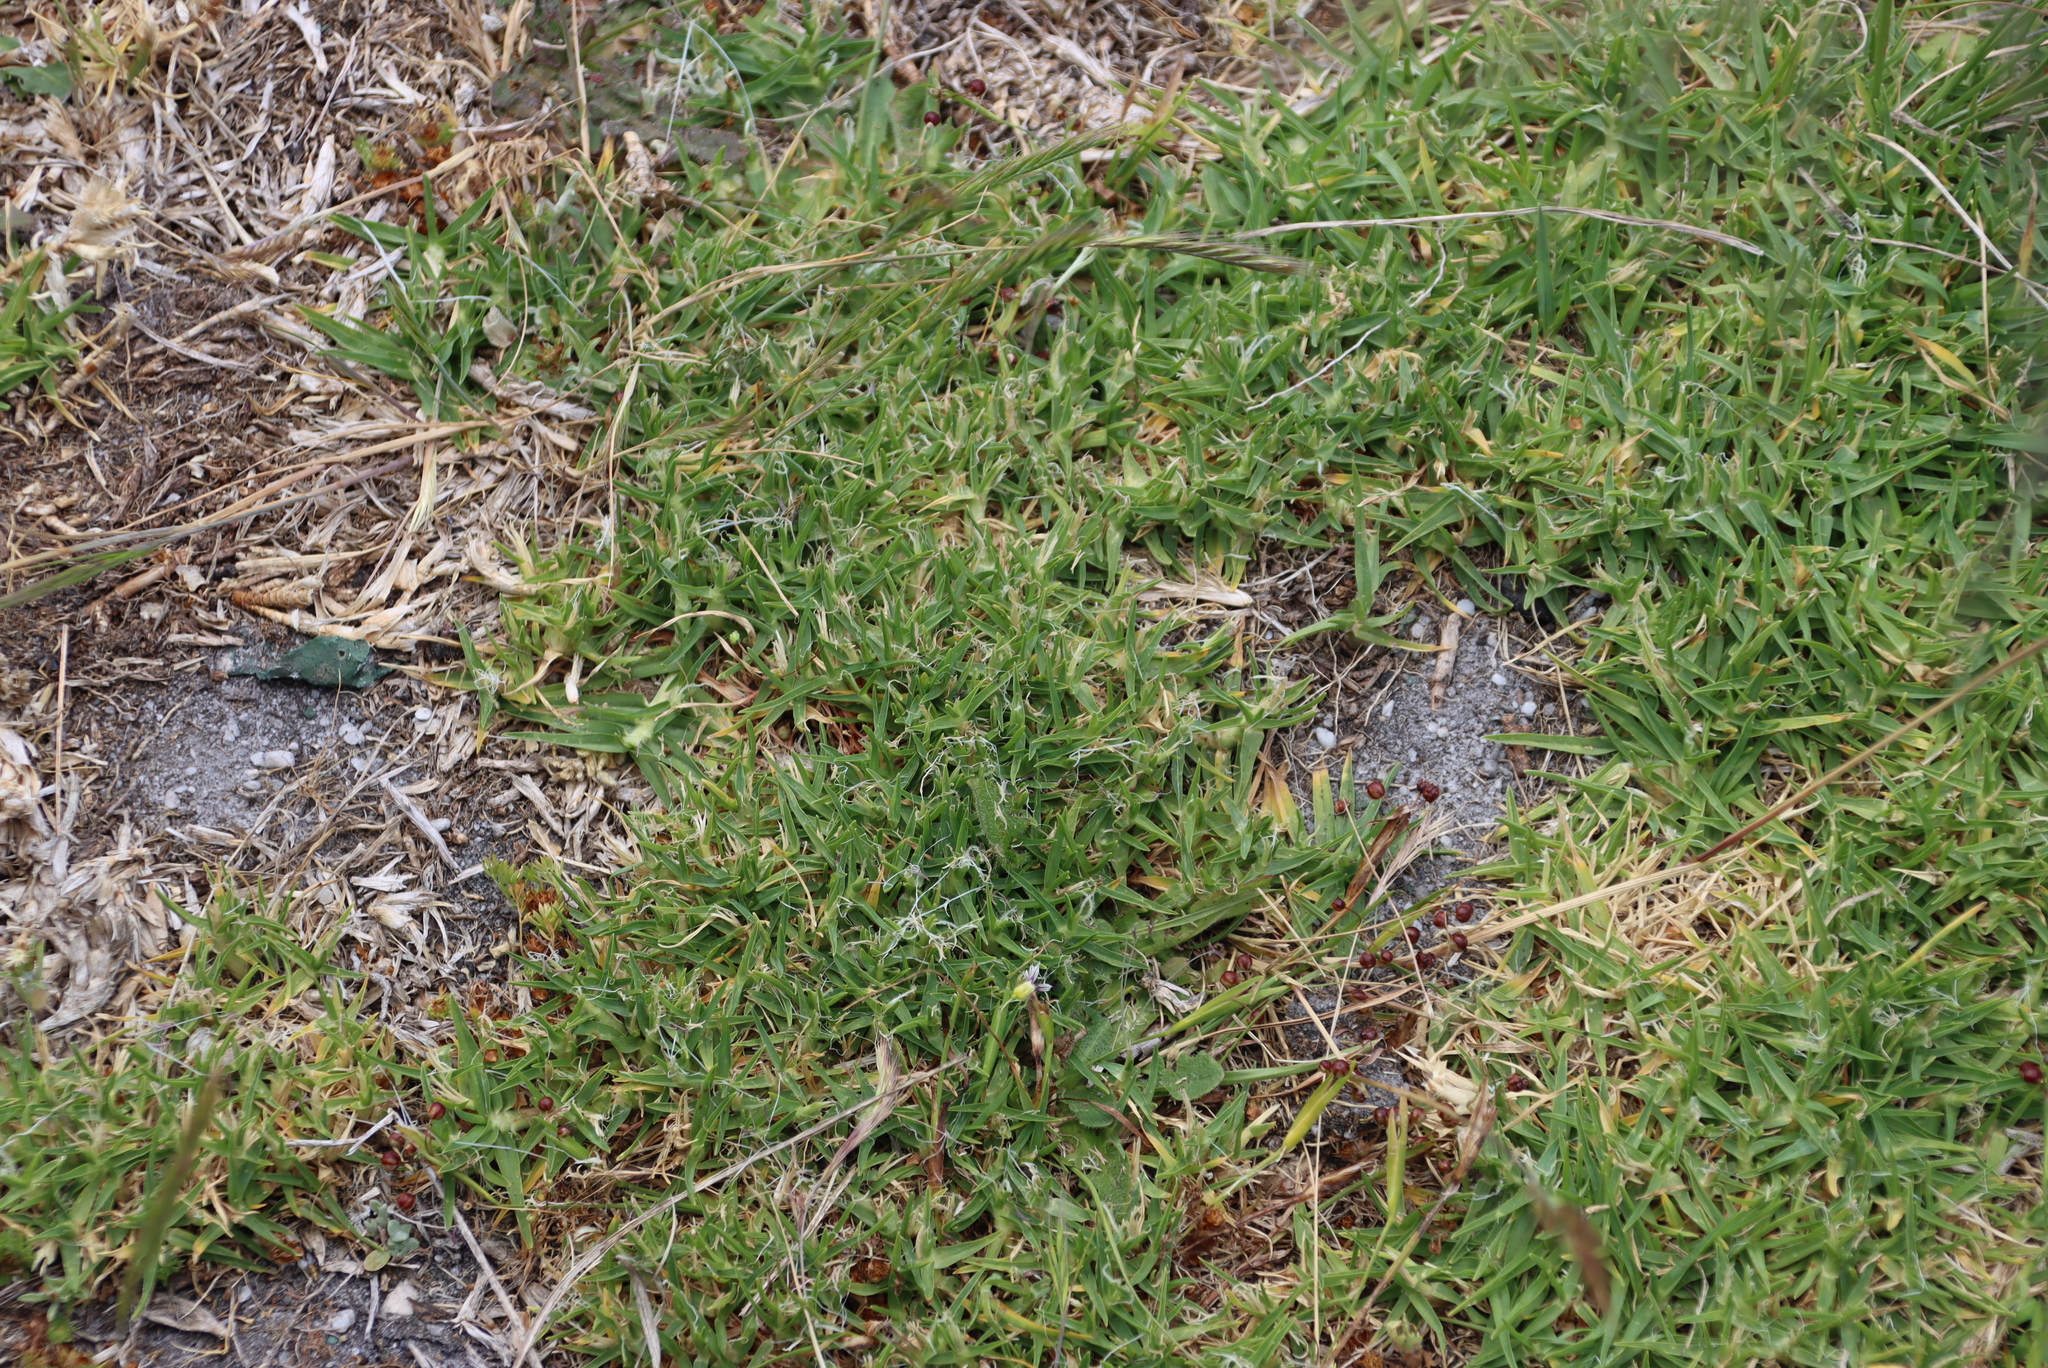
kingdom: Plantae
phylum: Tracheophyta
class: Liliopsida
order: Poales
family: Poaceae
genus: Cenchrus
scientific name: Cenchrus clandestinus
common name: Kikuyugrass
